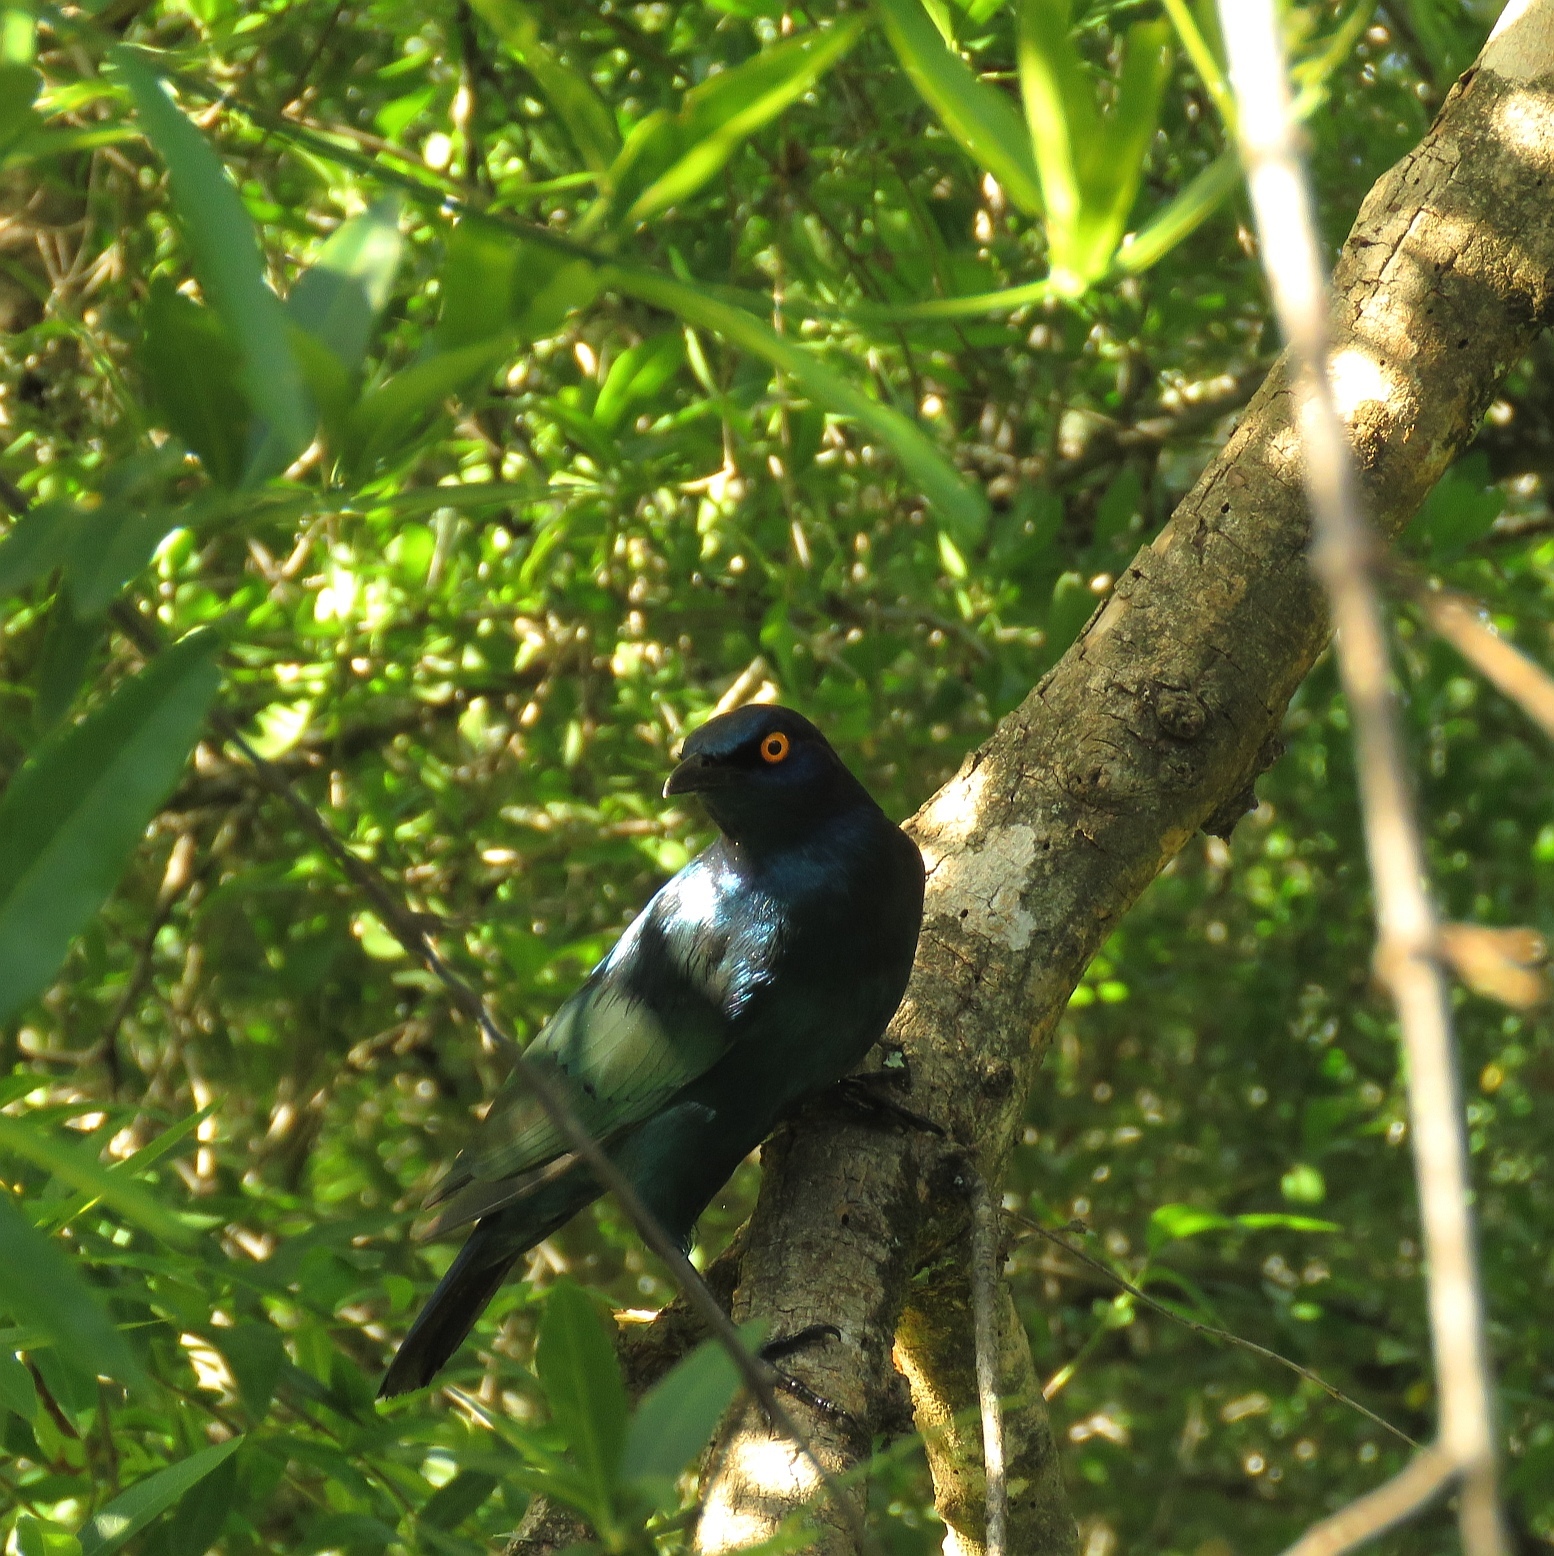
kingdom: Animalia
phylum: Chordata
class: Aves
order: Passeriformes
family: Sturnidae
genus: Lamprotornis
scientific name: Lamprotornis nitens
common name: Cape starling
